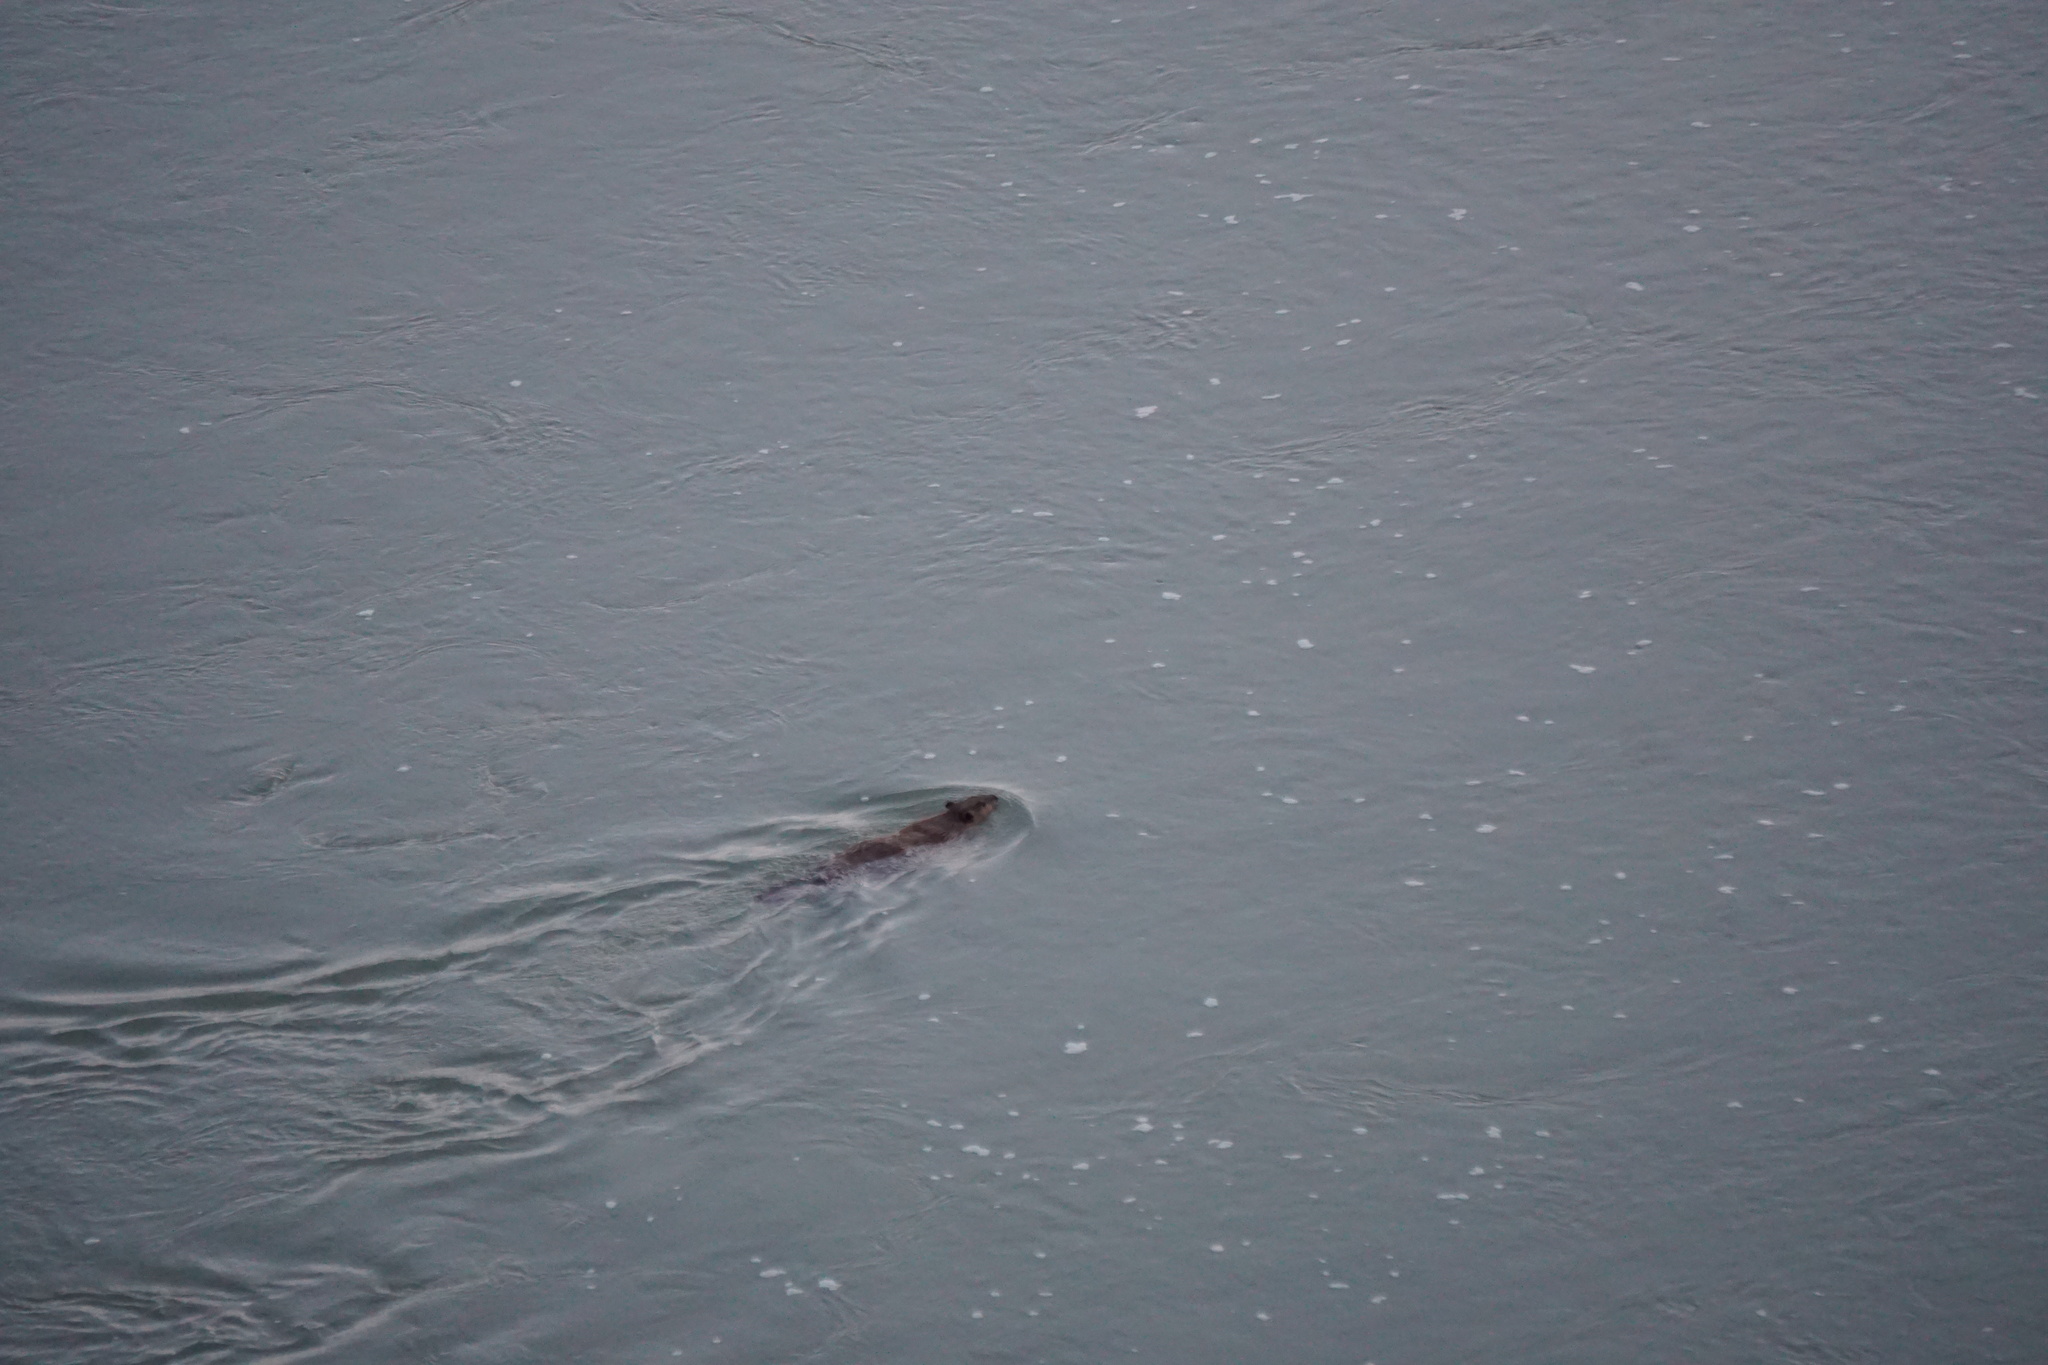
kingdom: Animalia
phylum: Chordata
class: Mammalia
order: Rodentia
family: Castoridae
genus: Castor
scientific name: Castor canadensis
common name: American beaver
